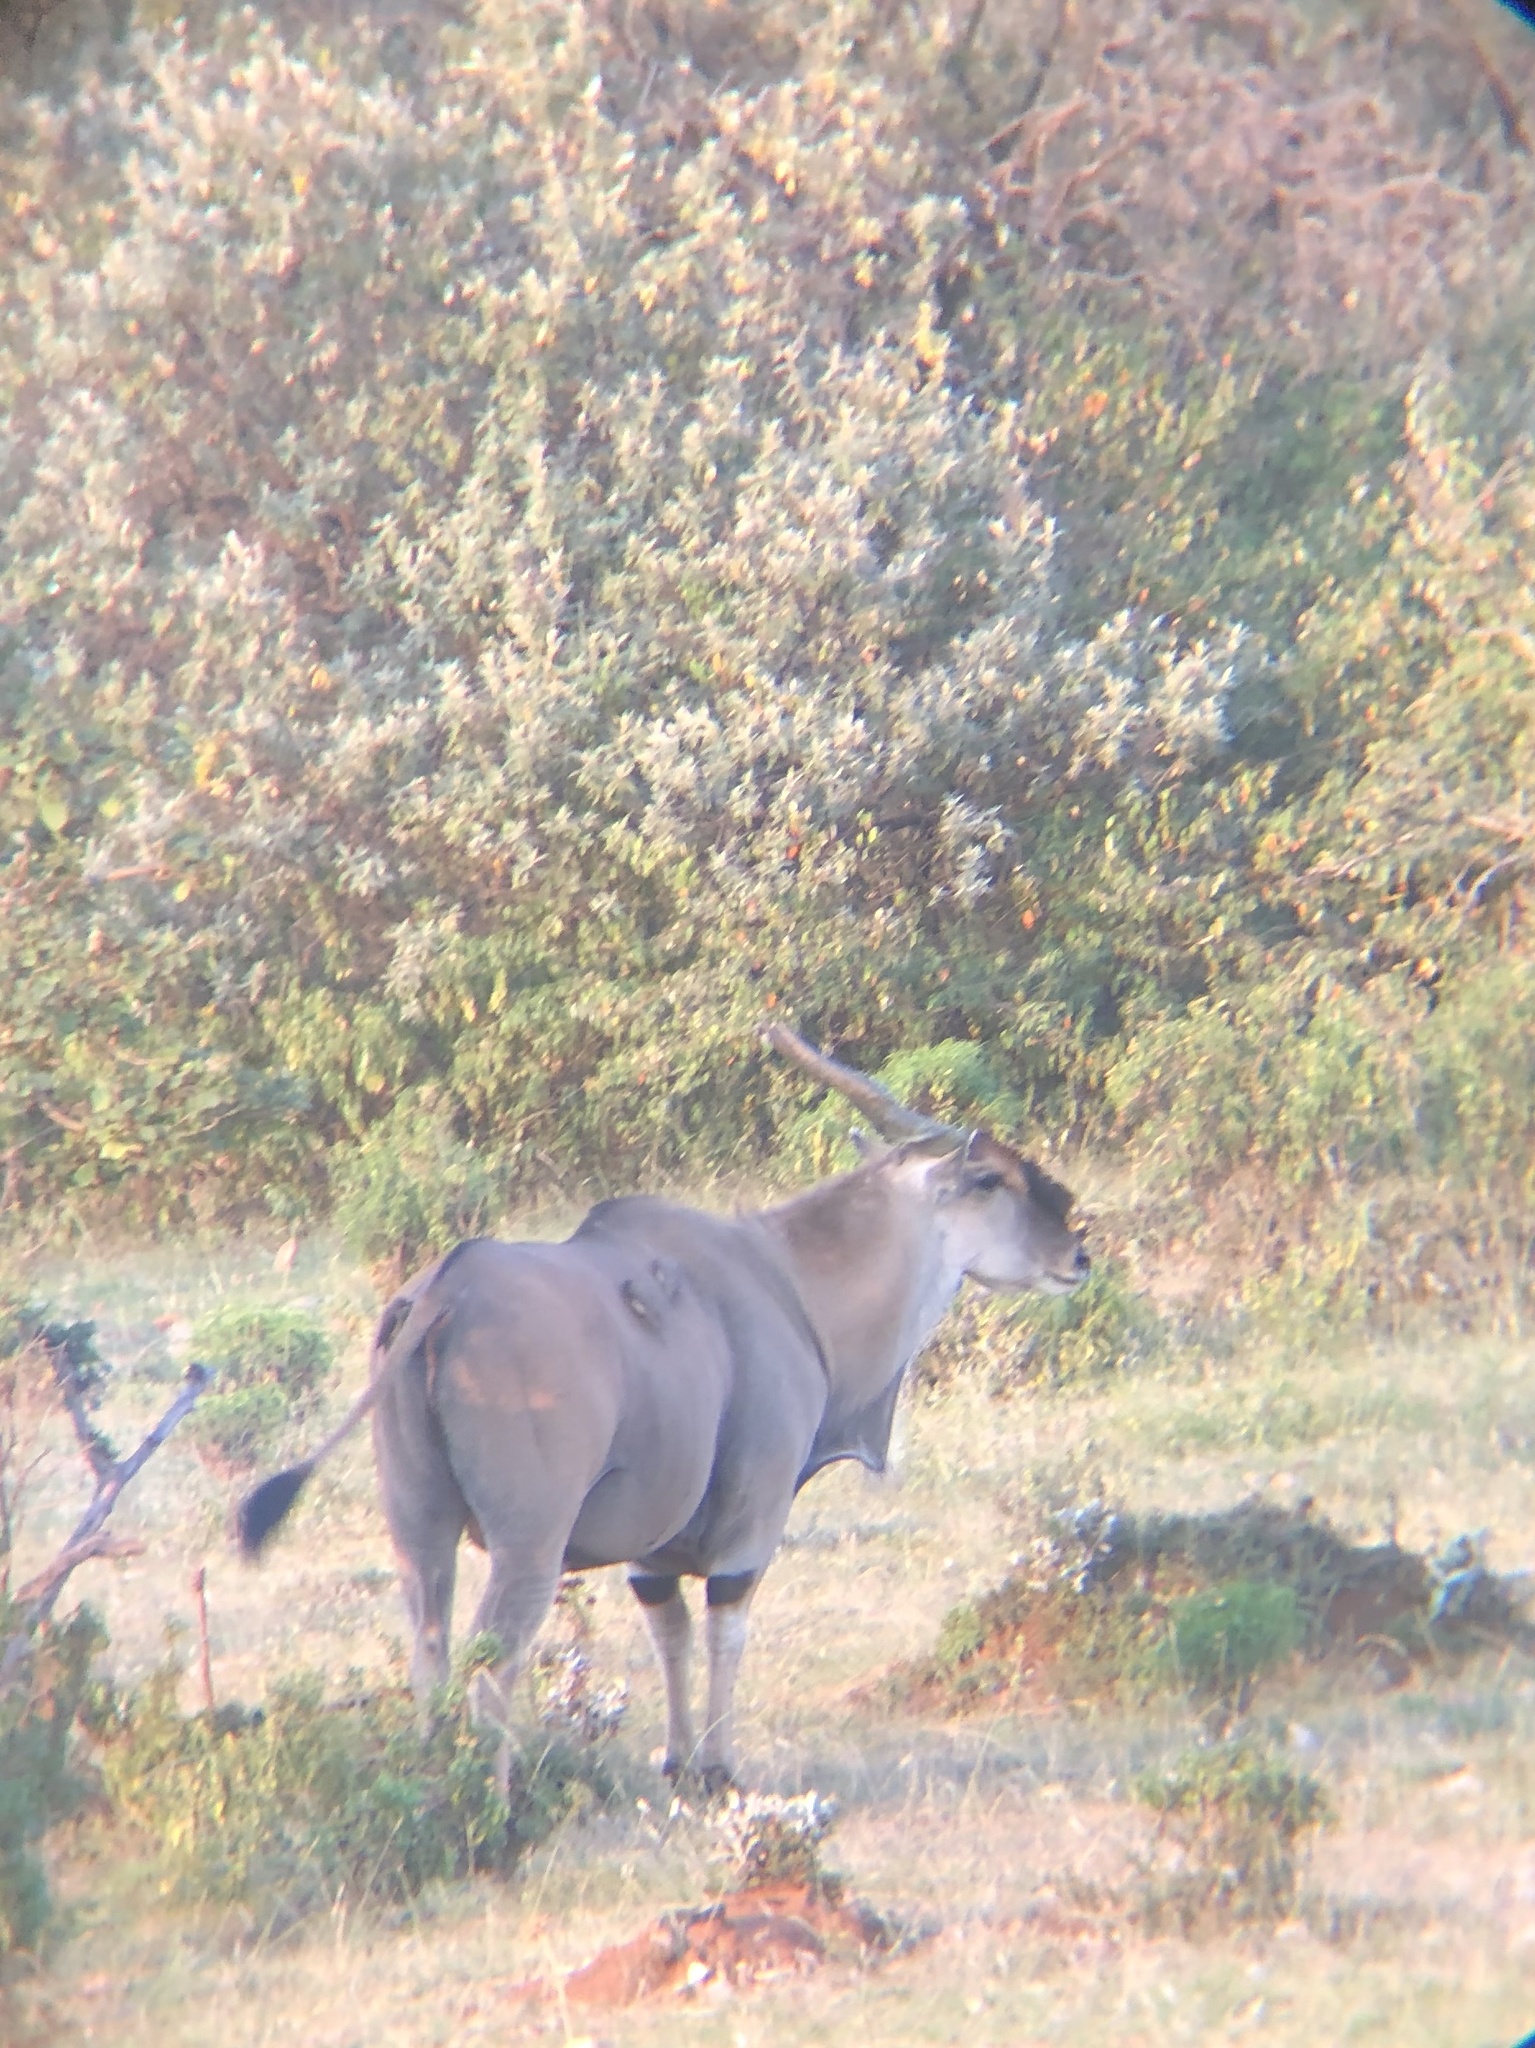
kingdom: Animalia
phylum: Chordata
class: Mammalia
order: Artiodactyla
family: Bovidae
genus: Taurotragus
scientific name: Taurotragus oryx
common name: Common eland
